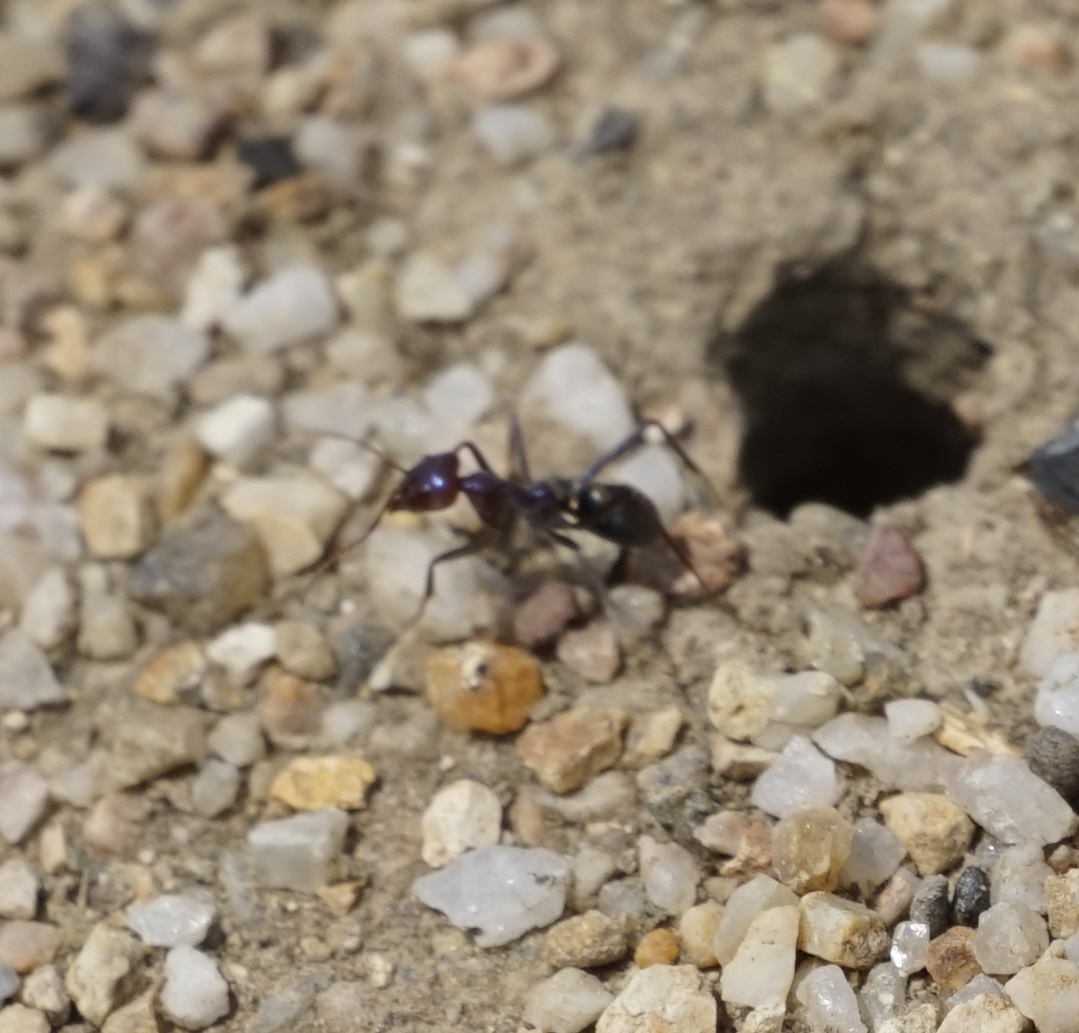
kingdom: Animalia
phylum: Arthropoda
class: Insecta
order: Hymenoptera
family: Formicidae
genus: Iridomyrmex
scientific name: Iridomyrmex purpureus
